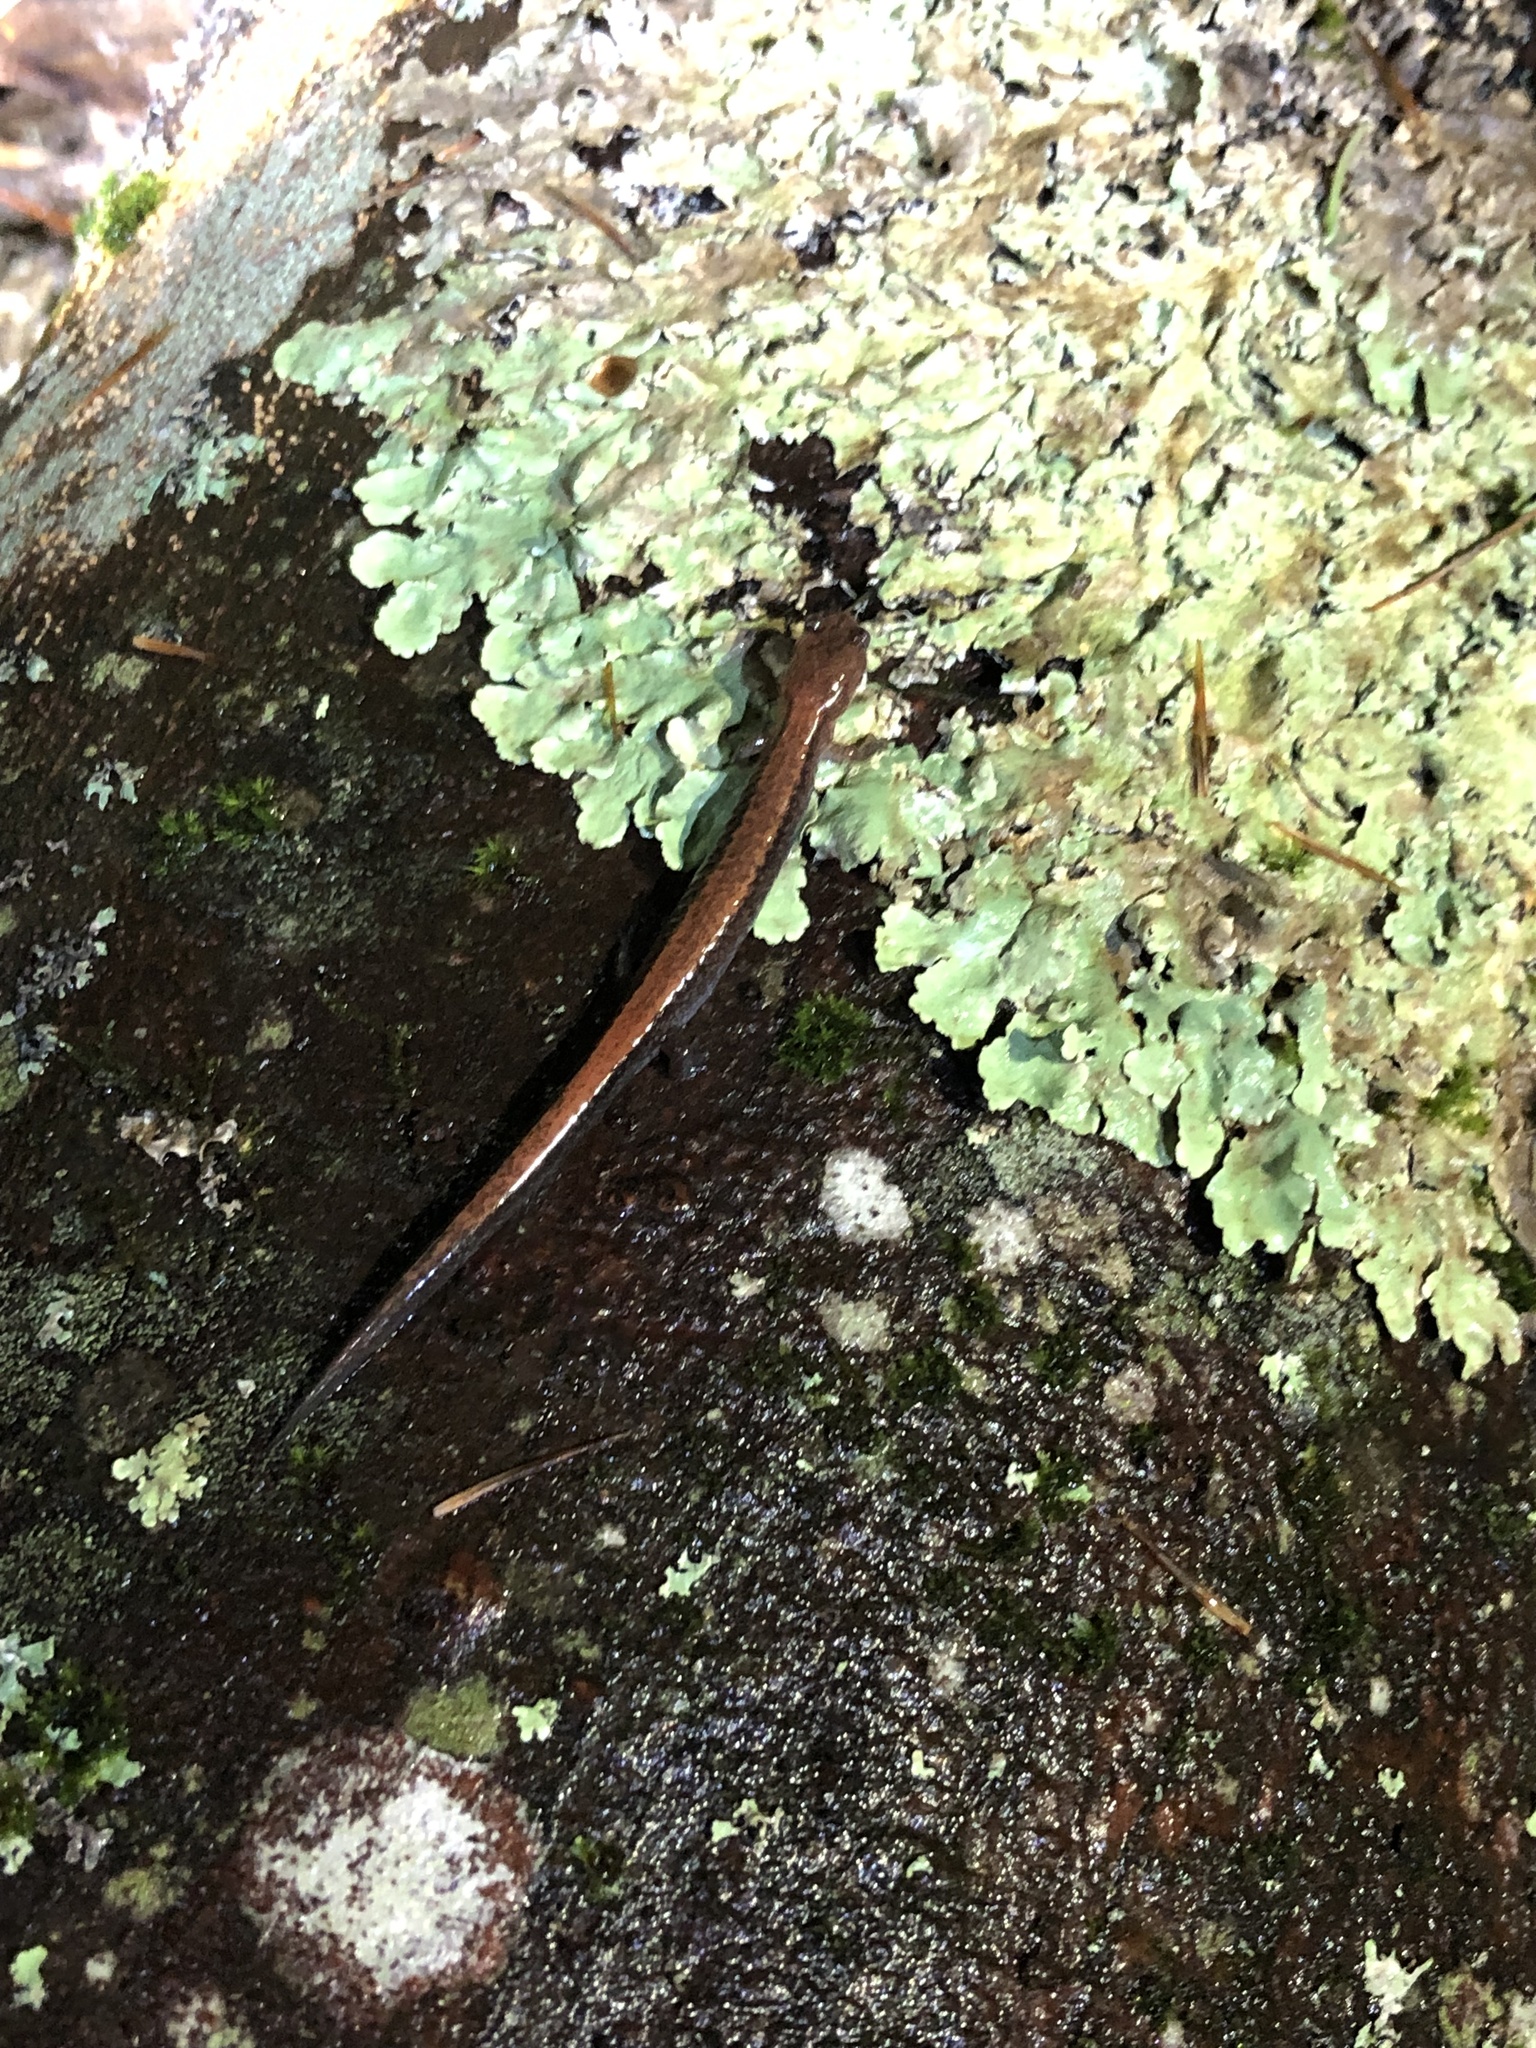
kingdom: Animalia
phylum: Chordata
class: Amphibia
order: Caudata
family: Plethodontidae
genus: Plethodon
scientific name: Plethodon cinereus
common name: Redback salamander
